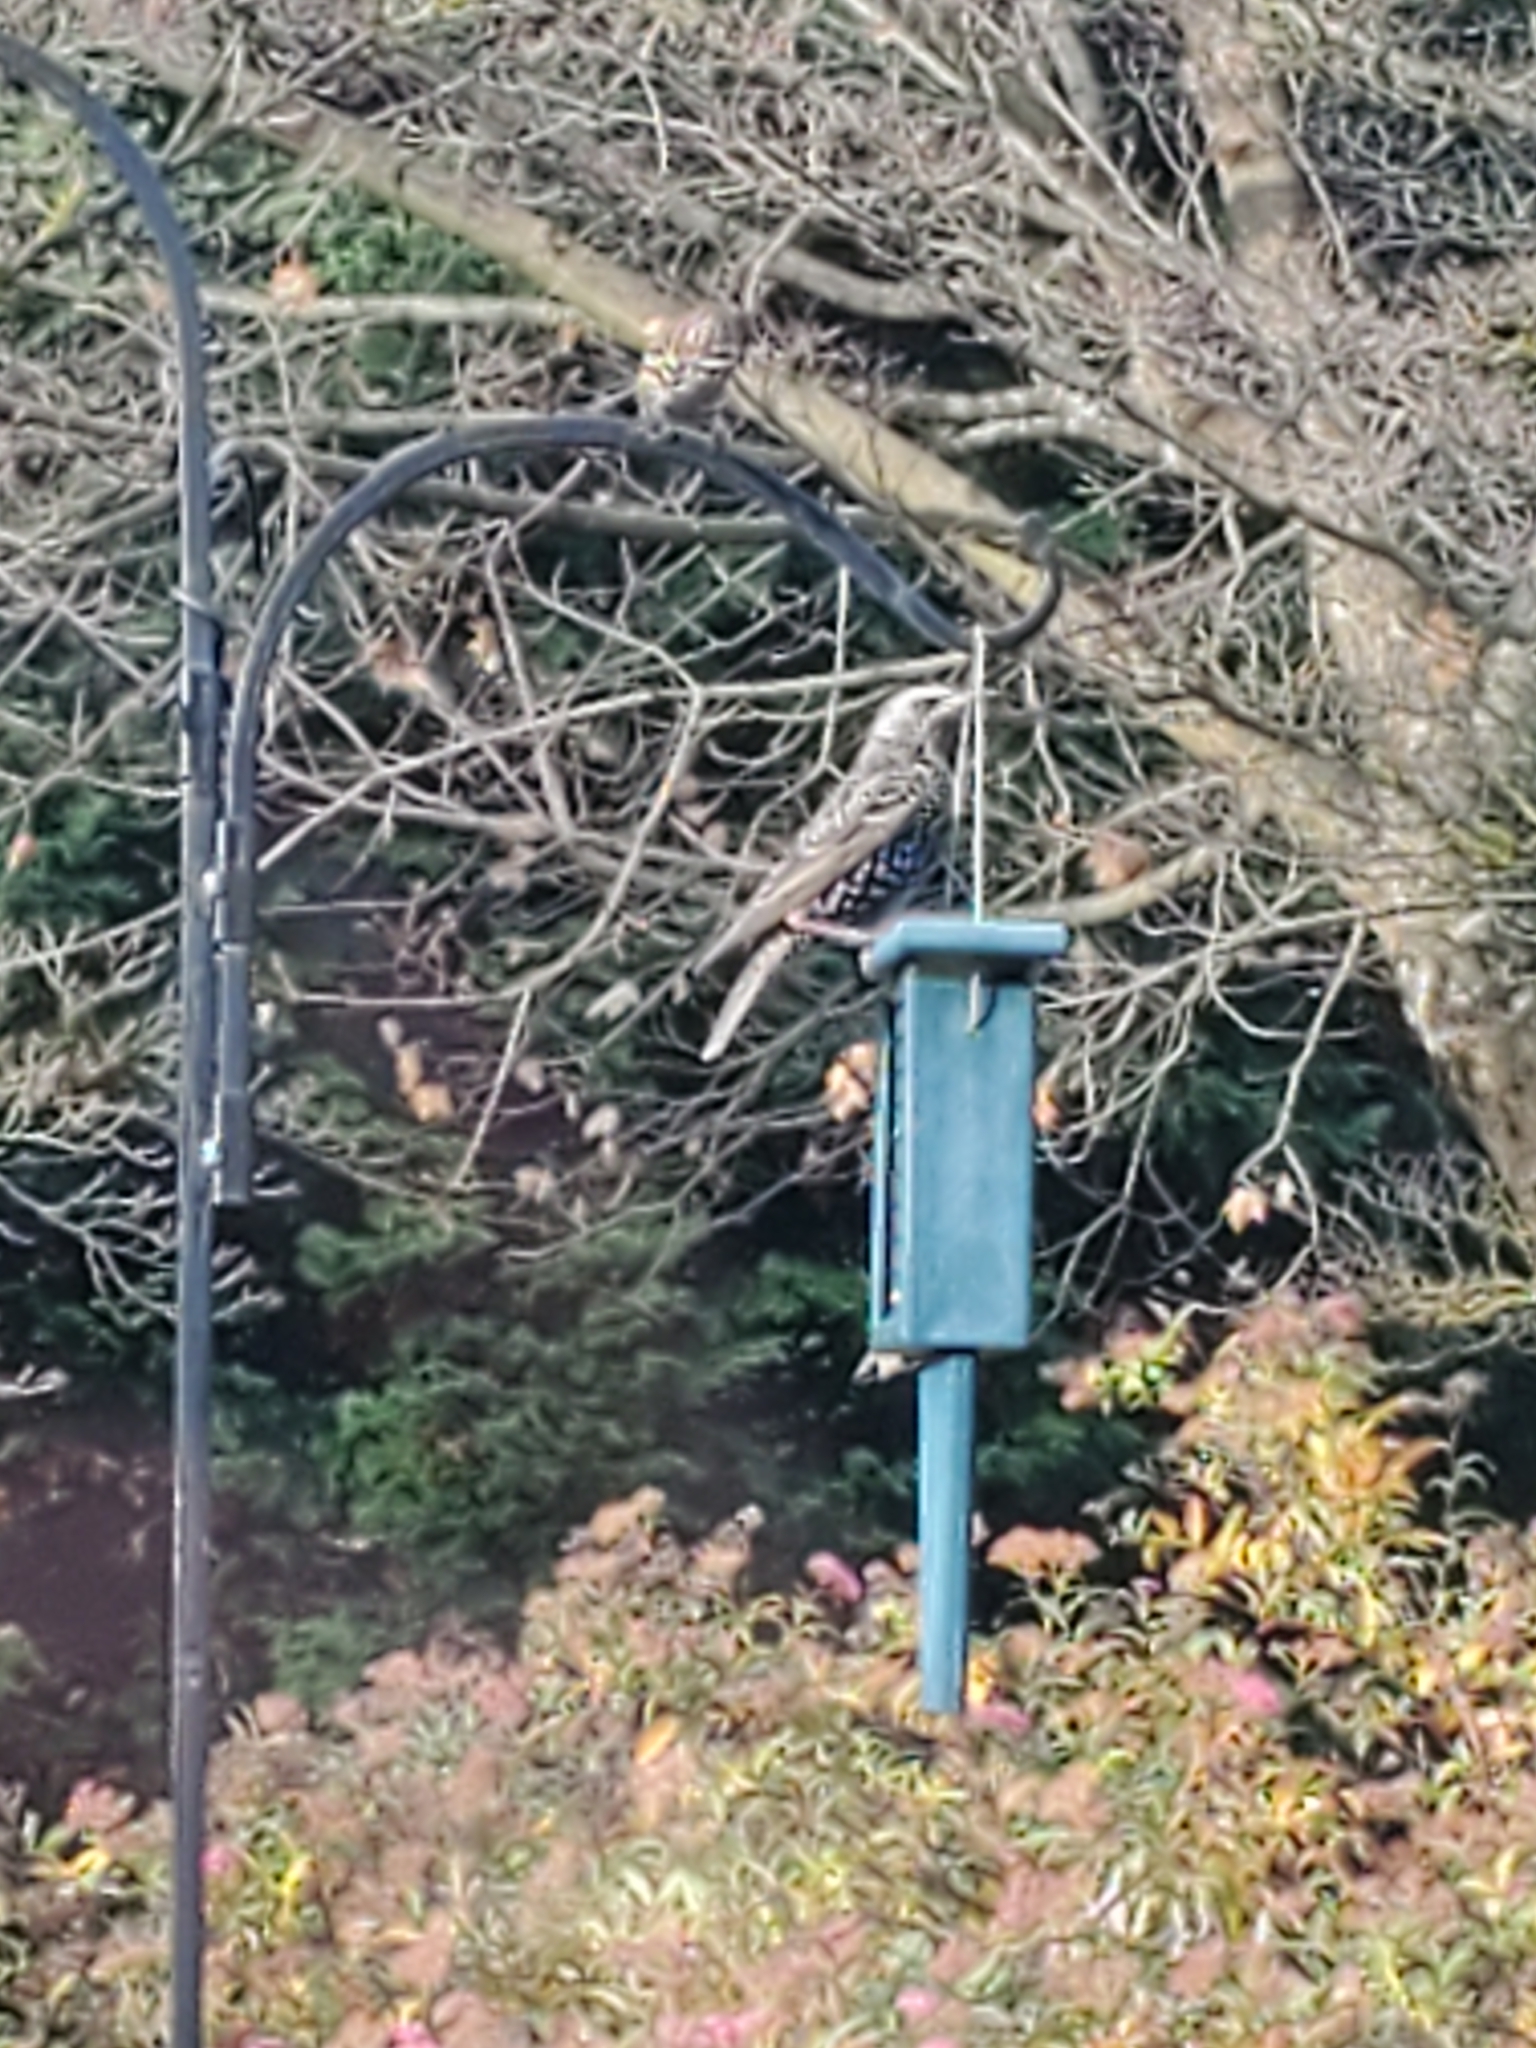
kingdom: Animalia
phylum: Chordata
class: Aves
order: Passeriformes
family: Sturnidae
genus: Sturnus
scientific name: Sturnus vulgaris
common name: Common starling
